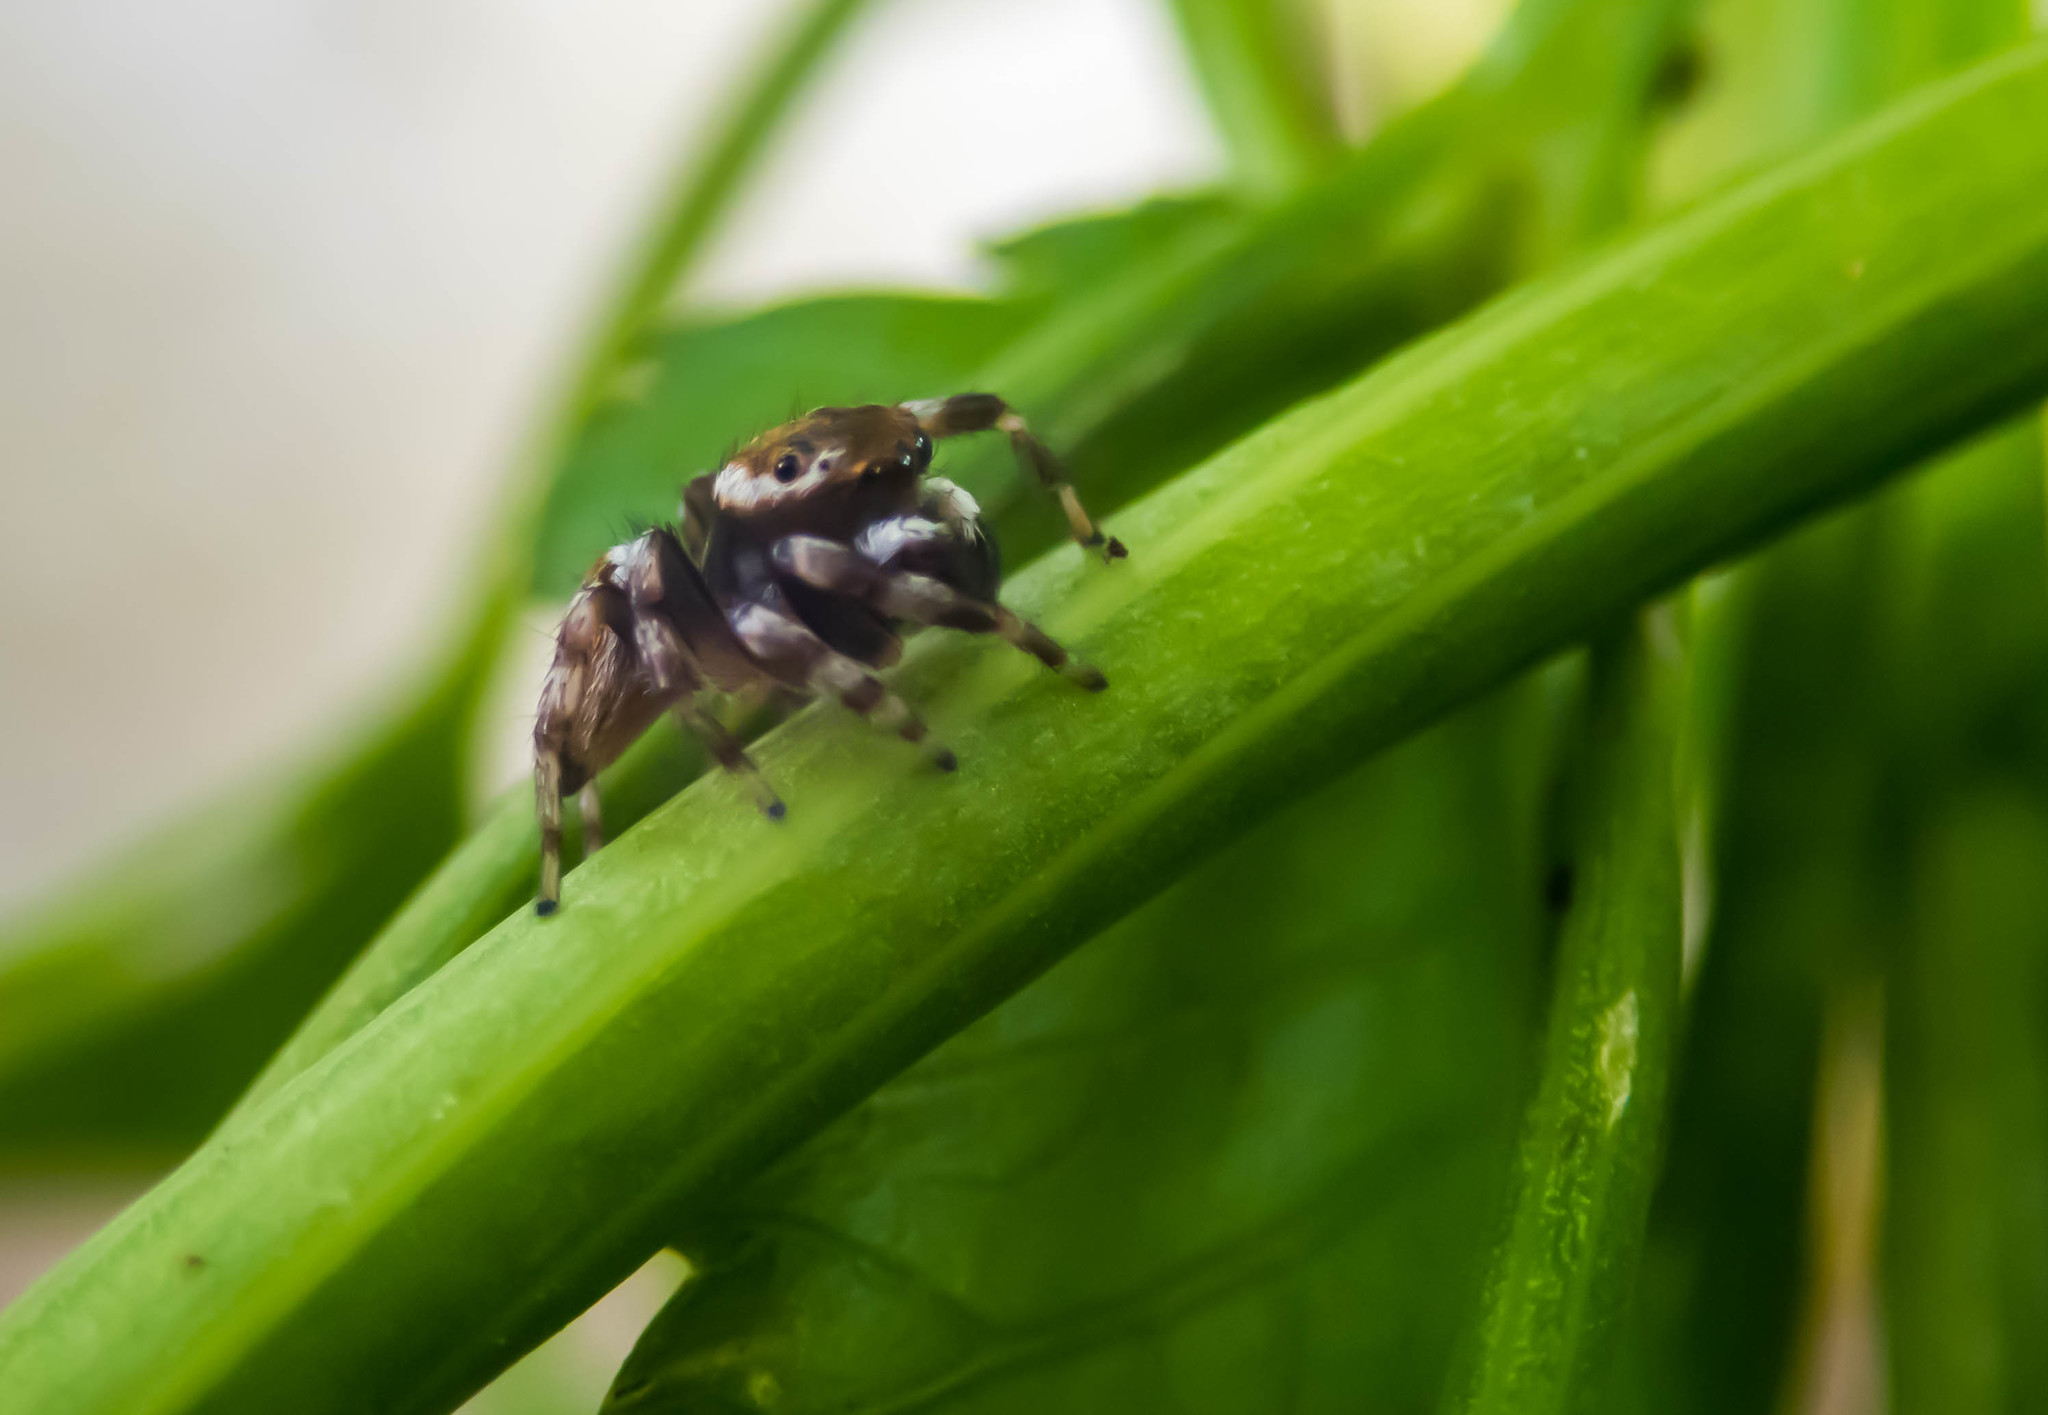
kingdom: Animalia
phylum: Arthropoda
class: Arachnida
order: Araneae
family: Salticidae
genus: Maratus
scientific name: Maratus scutulatus
